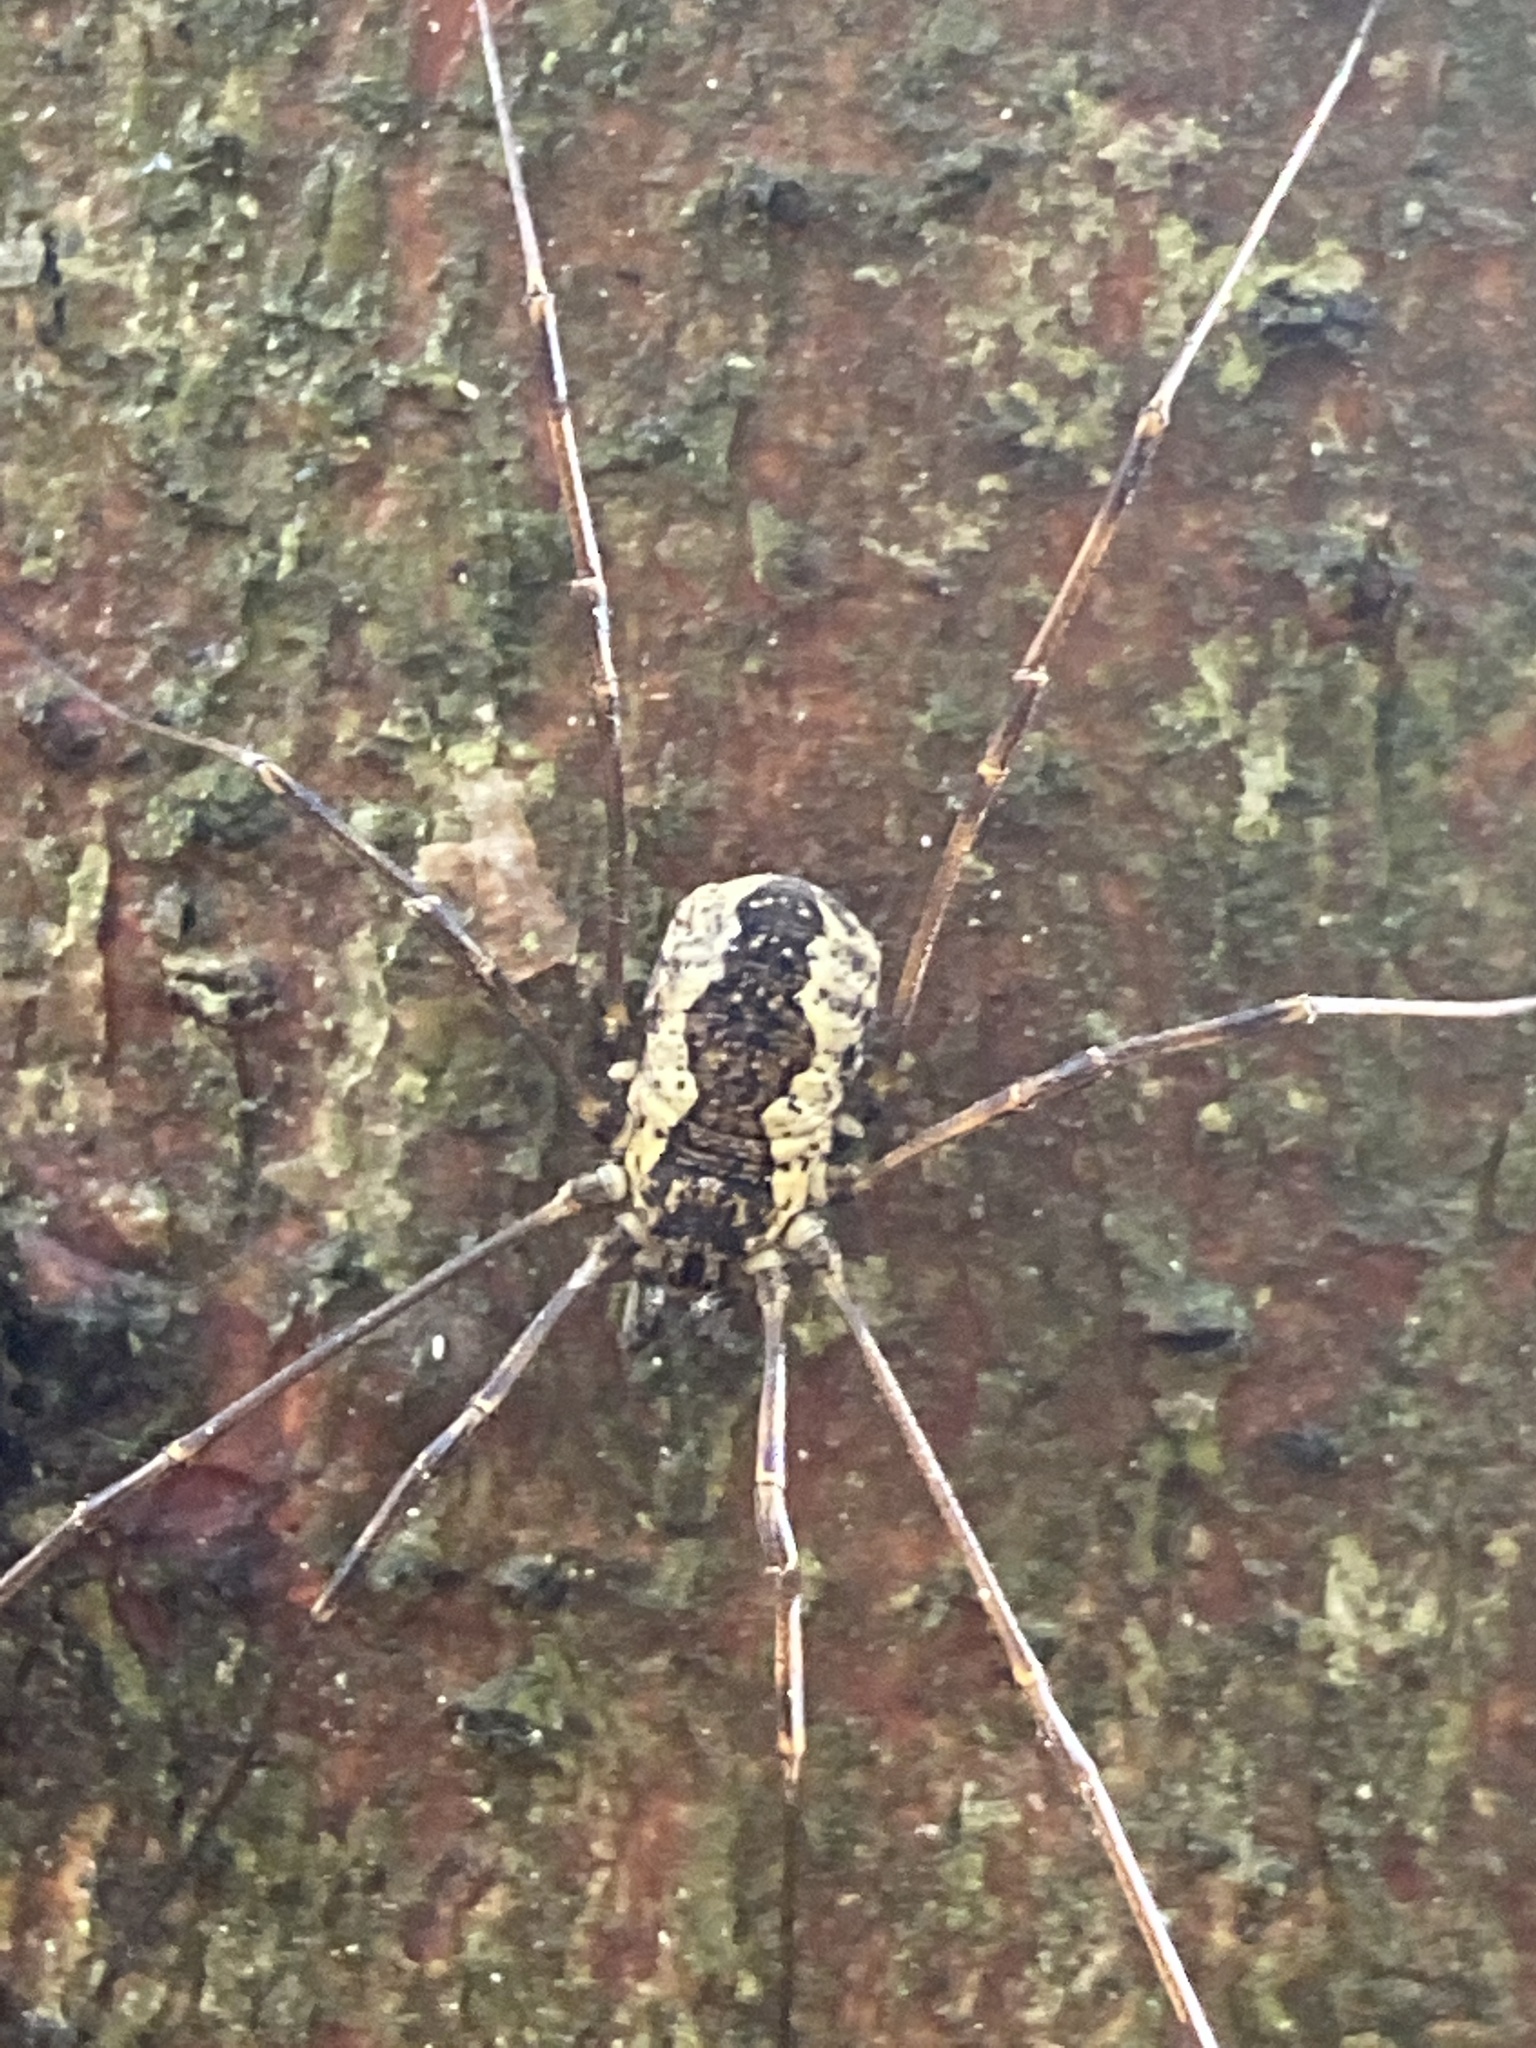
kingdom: Animalia
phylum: Arthropoda
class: Arachnida
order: Opiliones
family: Phalangiidae
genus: Mitopus
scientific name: Mitopus morio
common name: Saddleback harvestman
